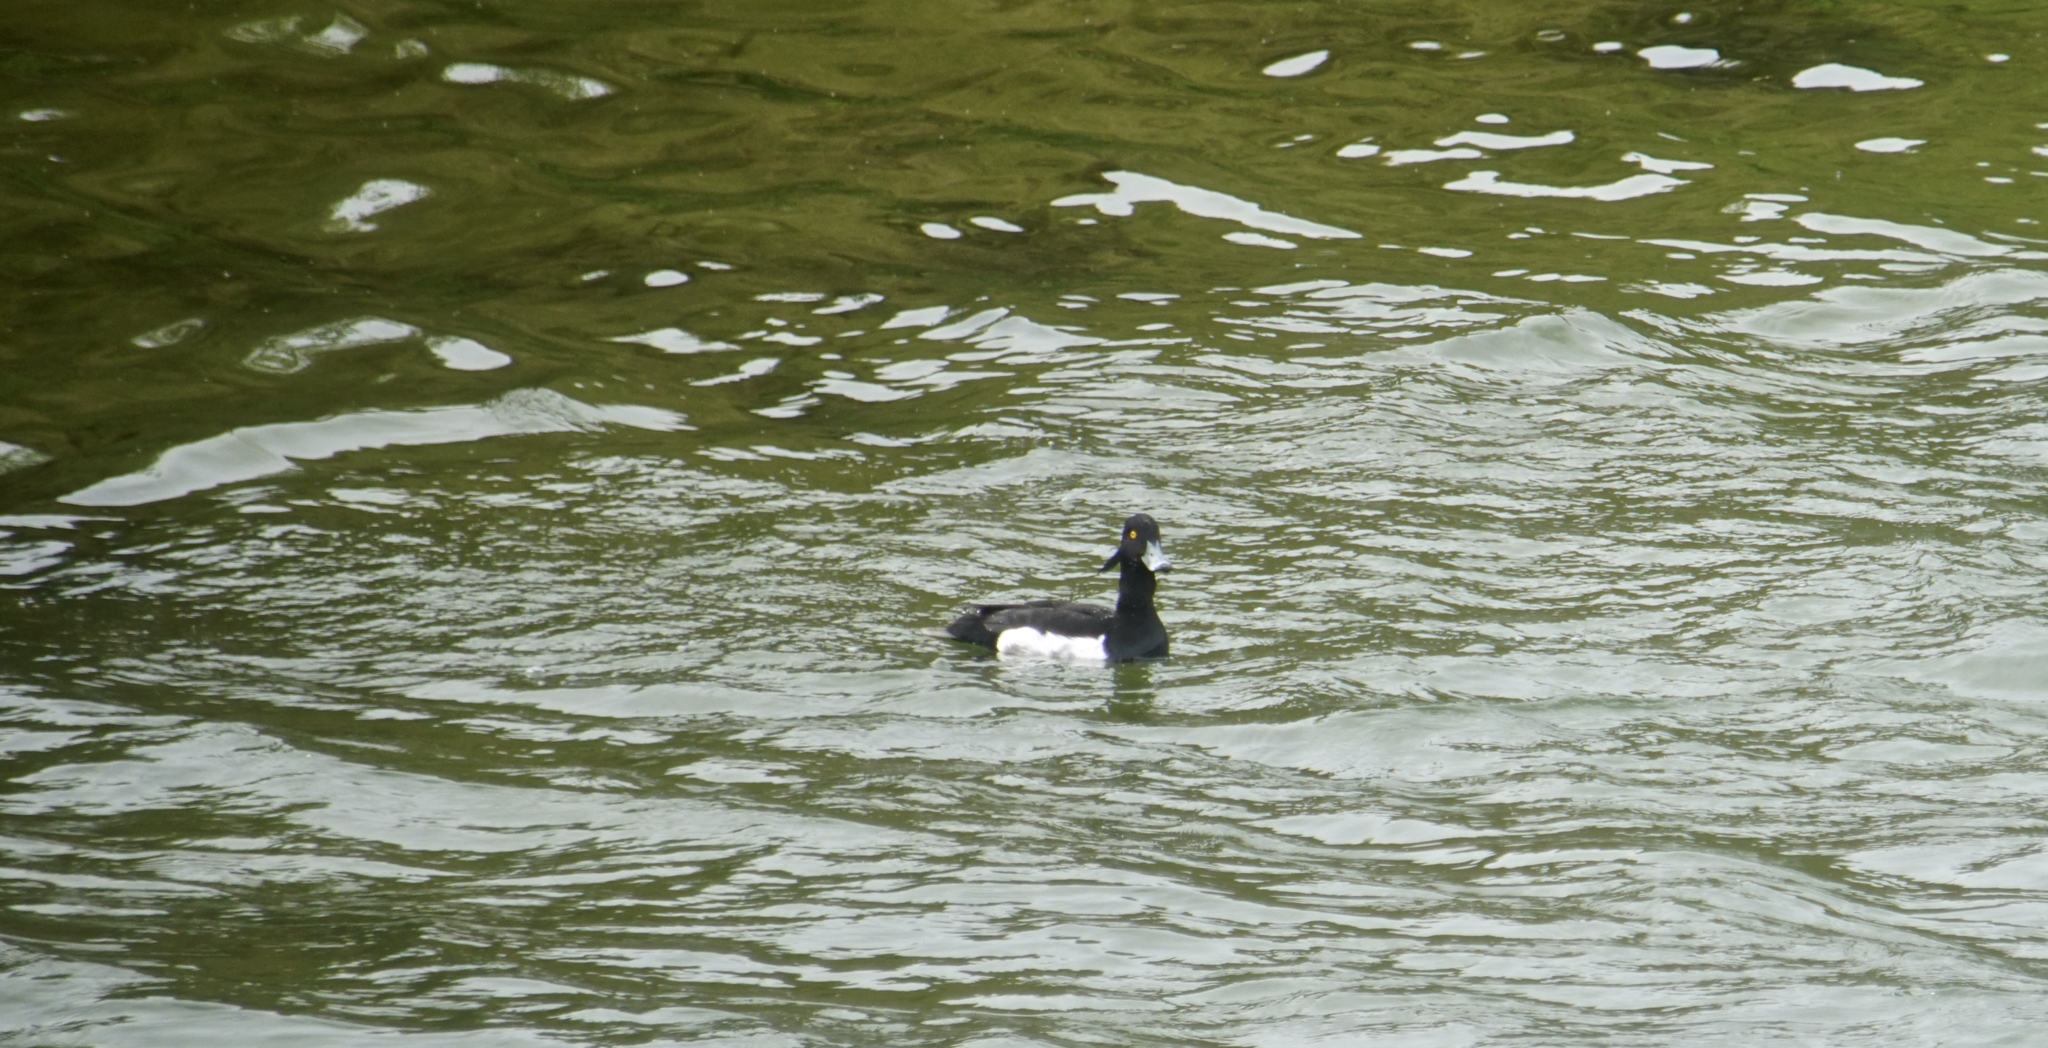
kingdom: Animalia
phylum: Chordata
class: Aves
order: Anseriformes
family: Anatidae
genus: Aythya
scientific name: Aythya fuligula
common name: Tufted duck
